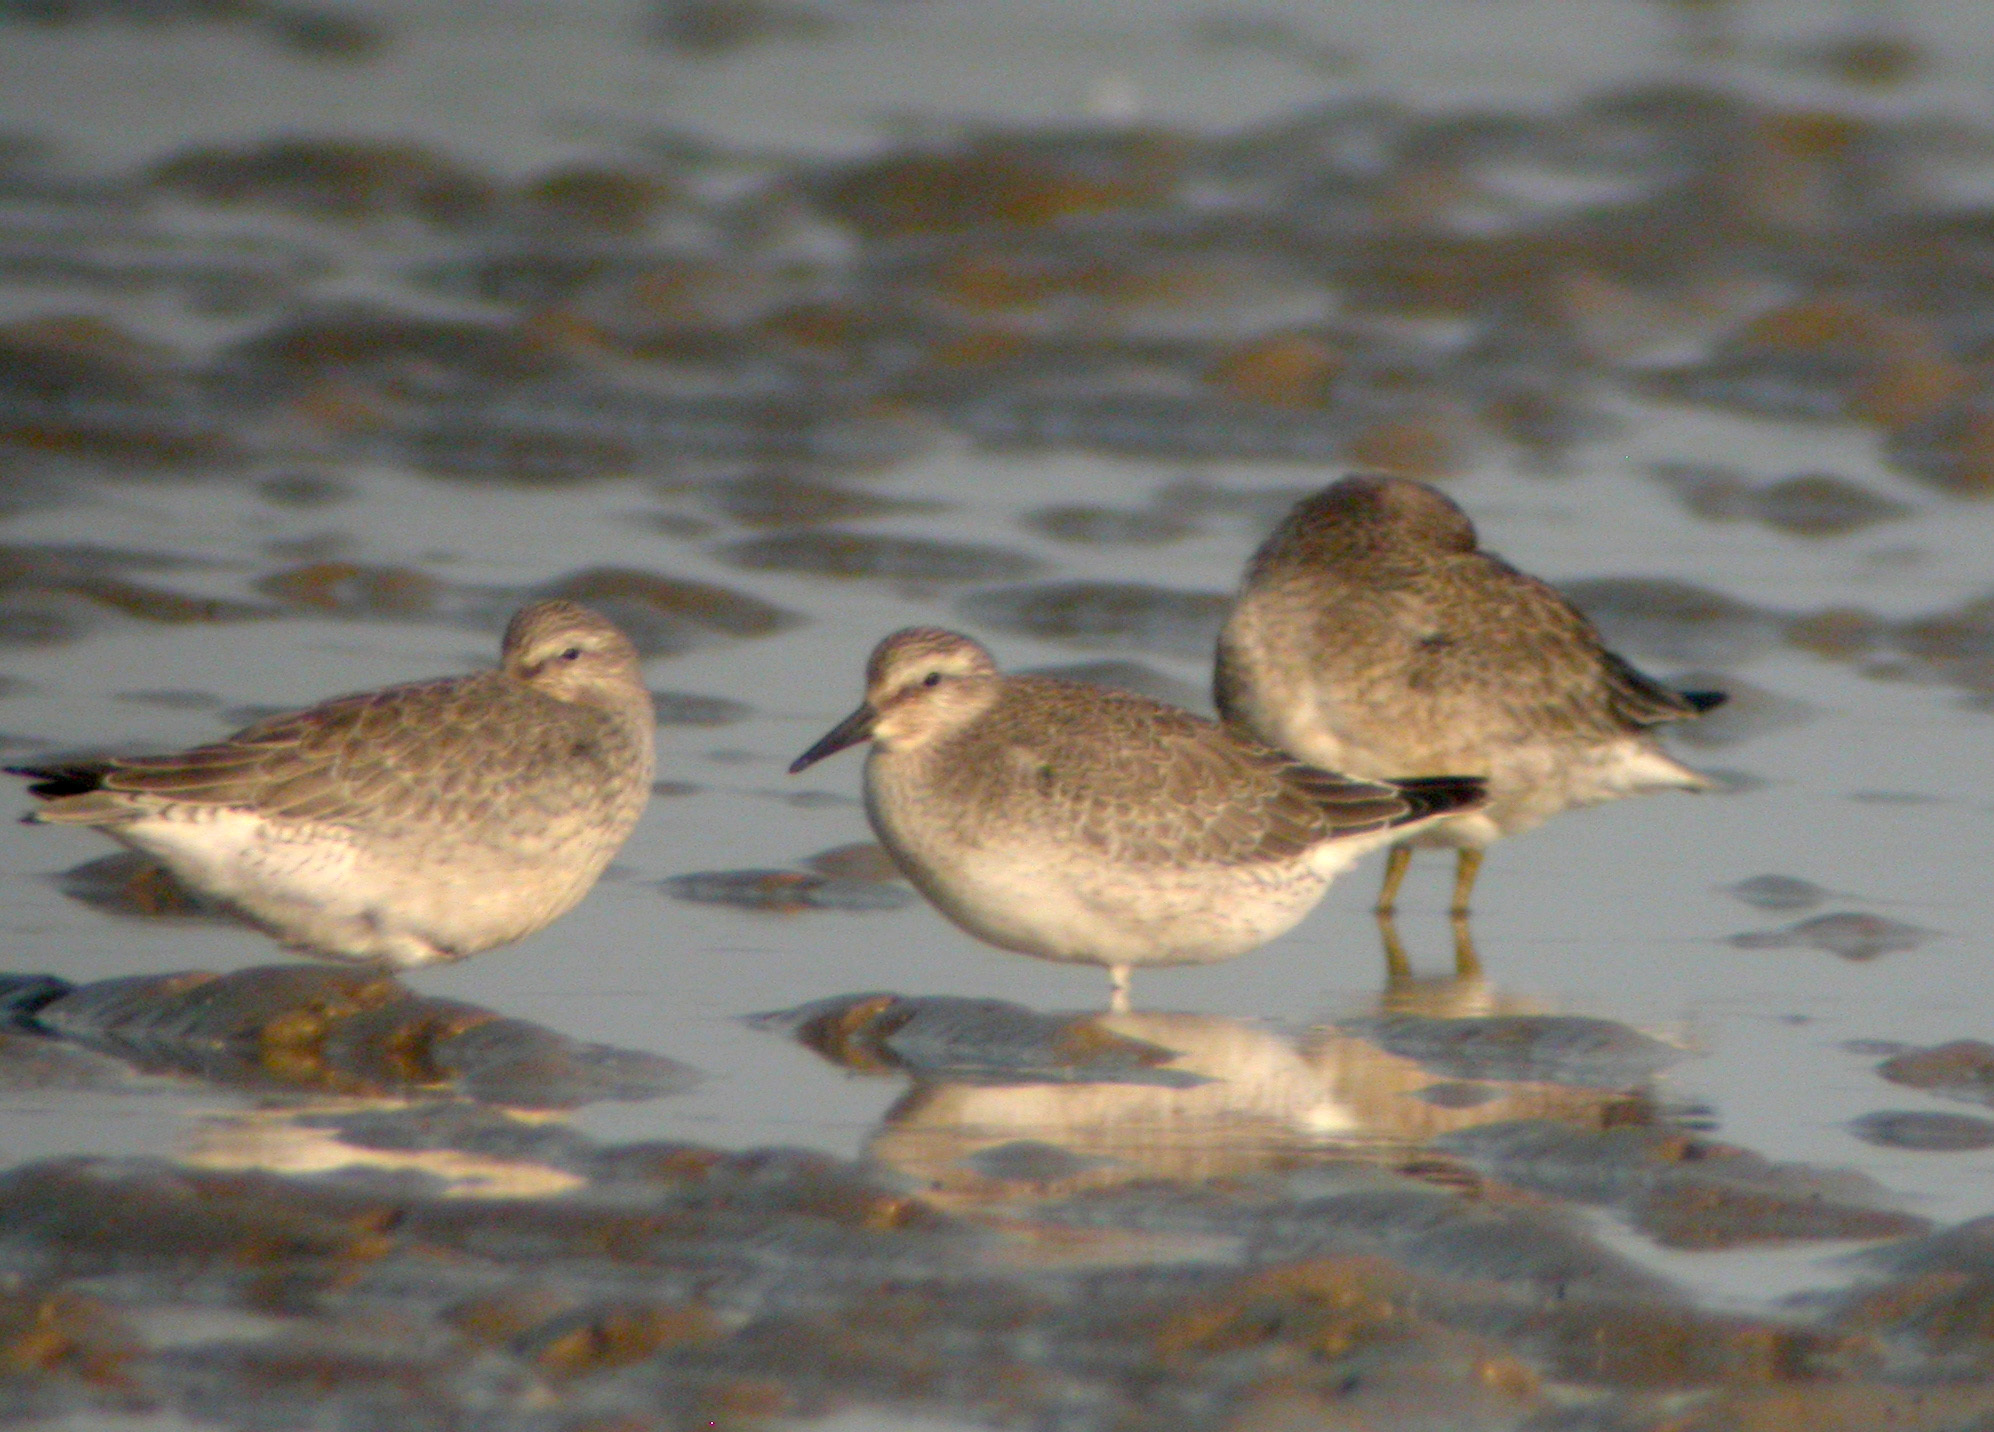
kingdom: Animalia
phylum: Chordata
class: Aves
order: Charadriiformes
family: Scolopacidae
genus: Calidris
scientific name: Calidris canutus
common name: Red knot
